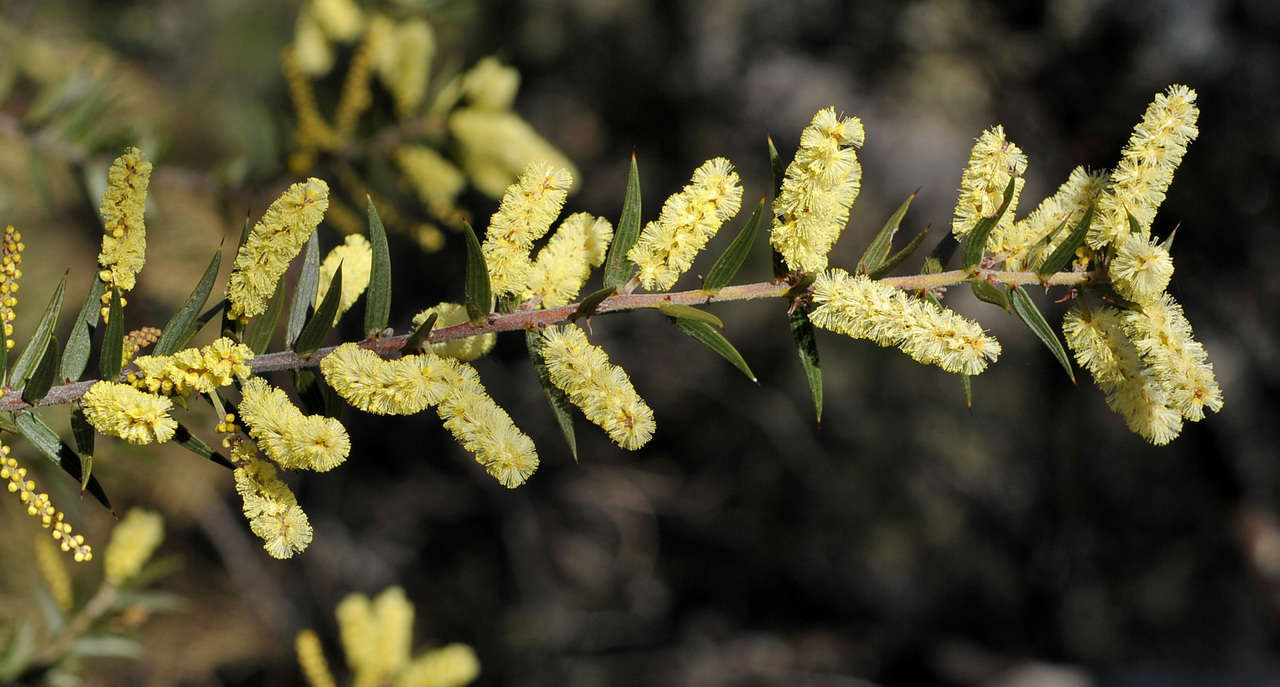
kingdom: Plantae
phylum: Tracheophyta
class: Magnoliopsida
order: Fabales
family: Fabaceae
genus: Acacia
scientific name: Acacia oxycedrus
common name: Spike wattle
